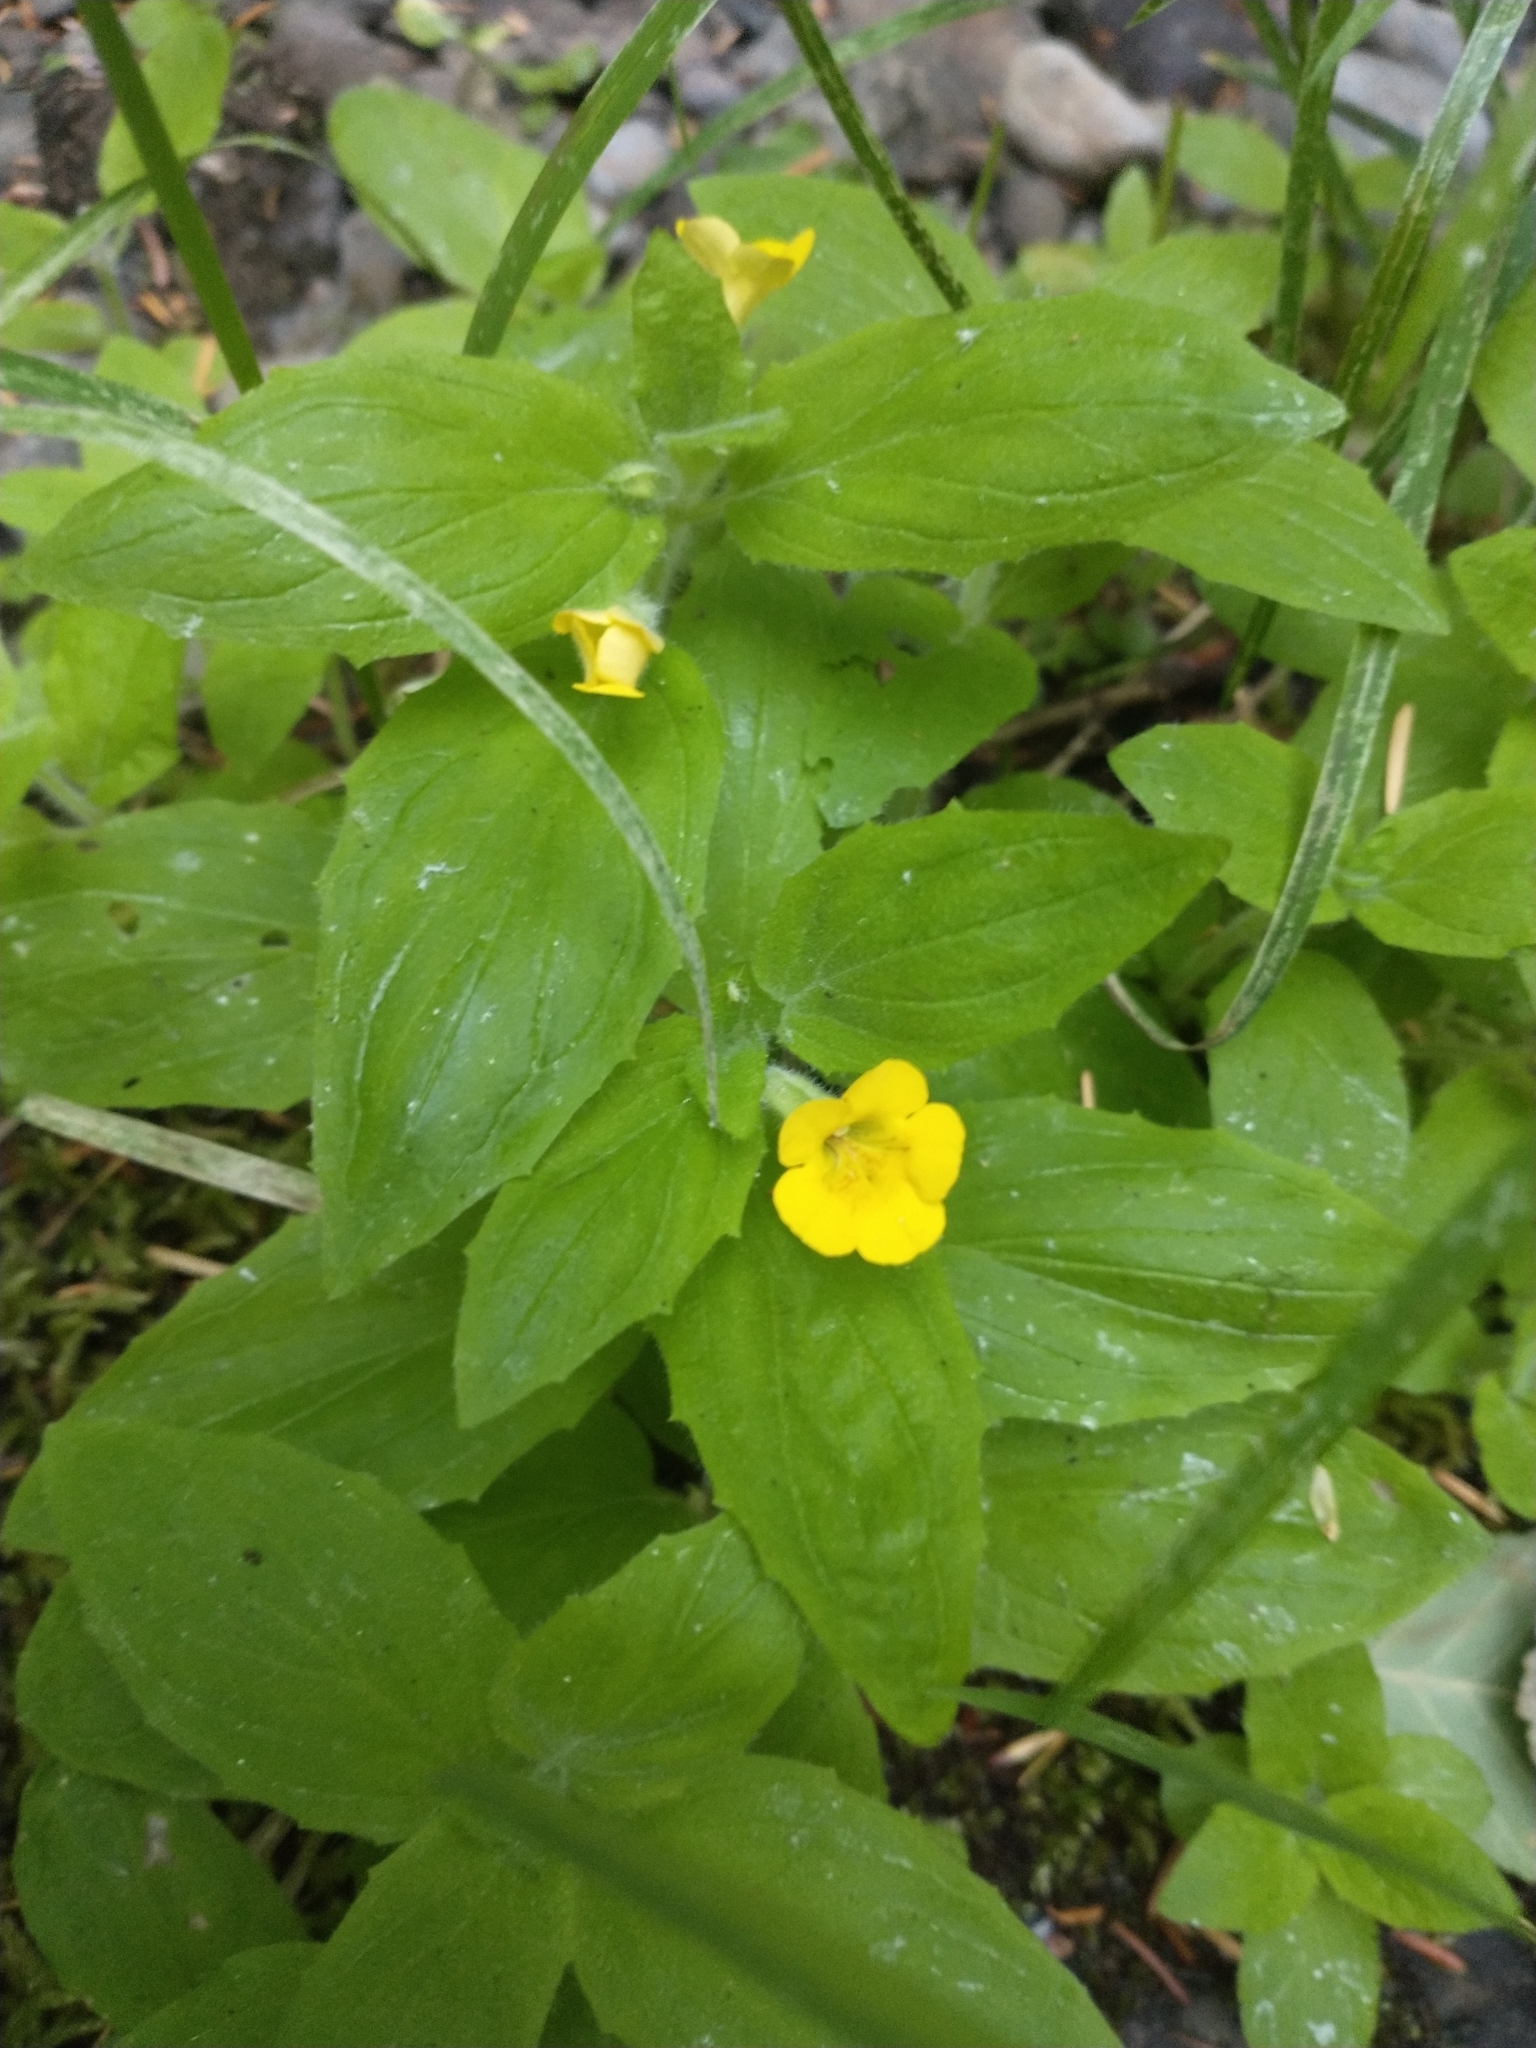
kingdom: Plantae
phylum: Tracheophyta
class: Magnoliopsida
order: Lamiales
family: Phrymaceae
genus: Erythranthe
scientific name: Erythranthe moschata
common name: Muskflower
